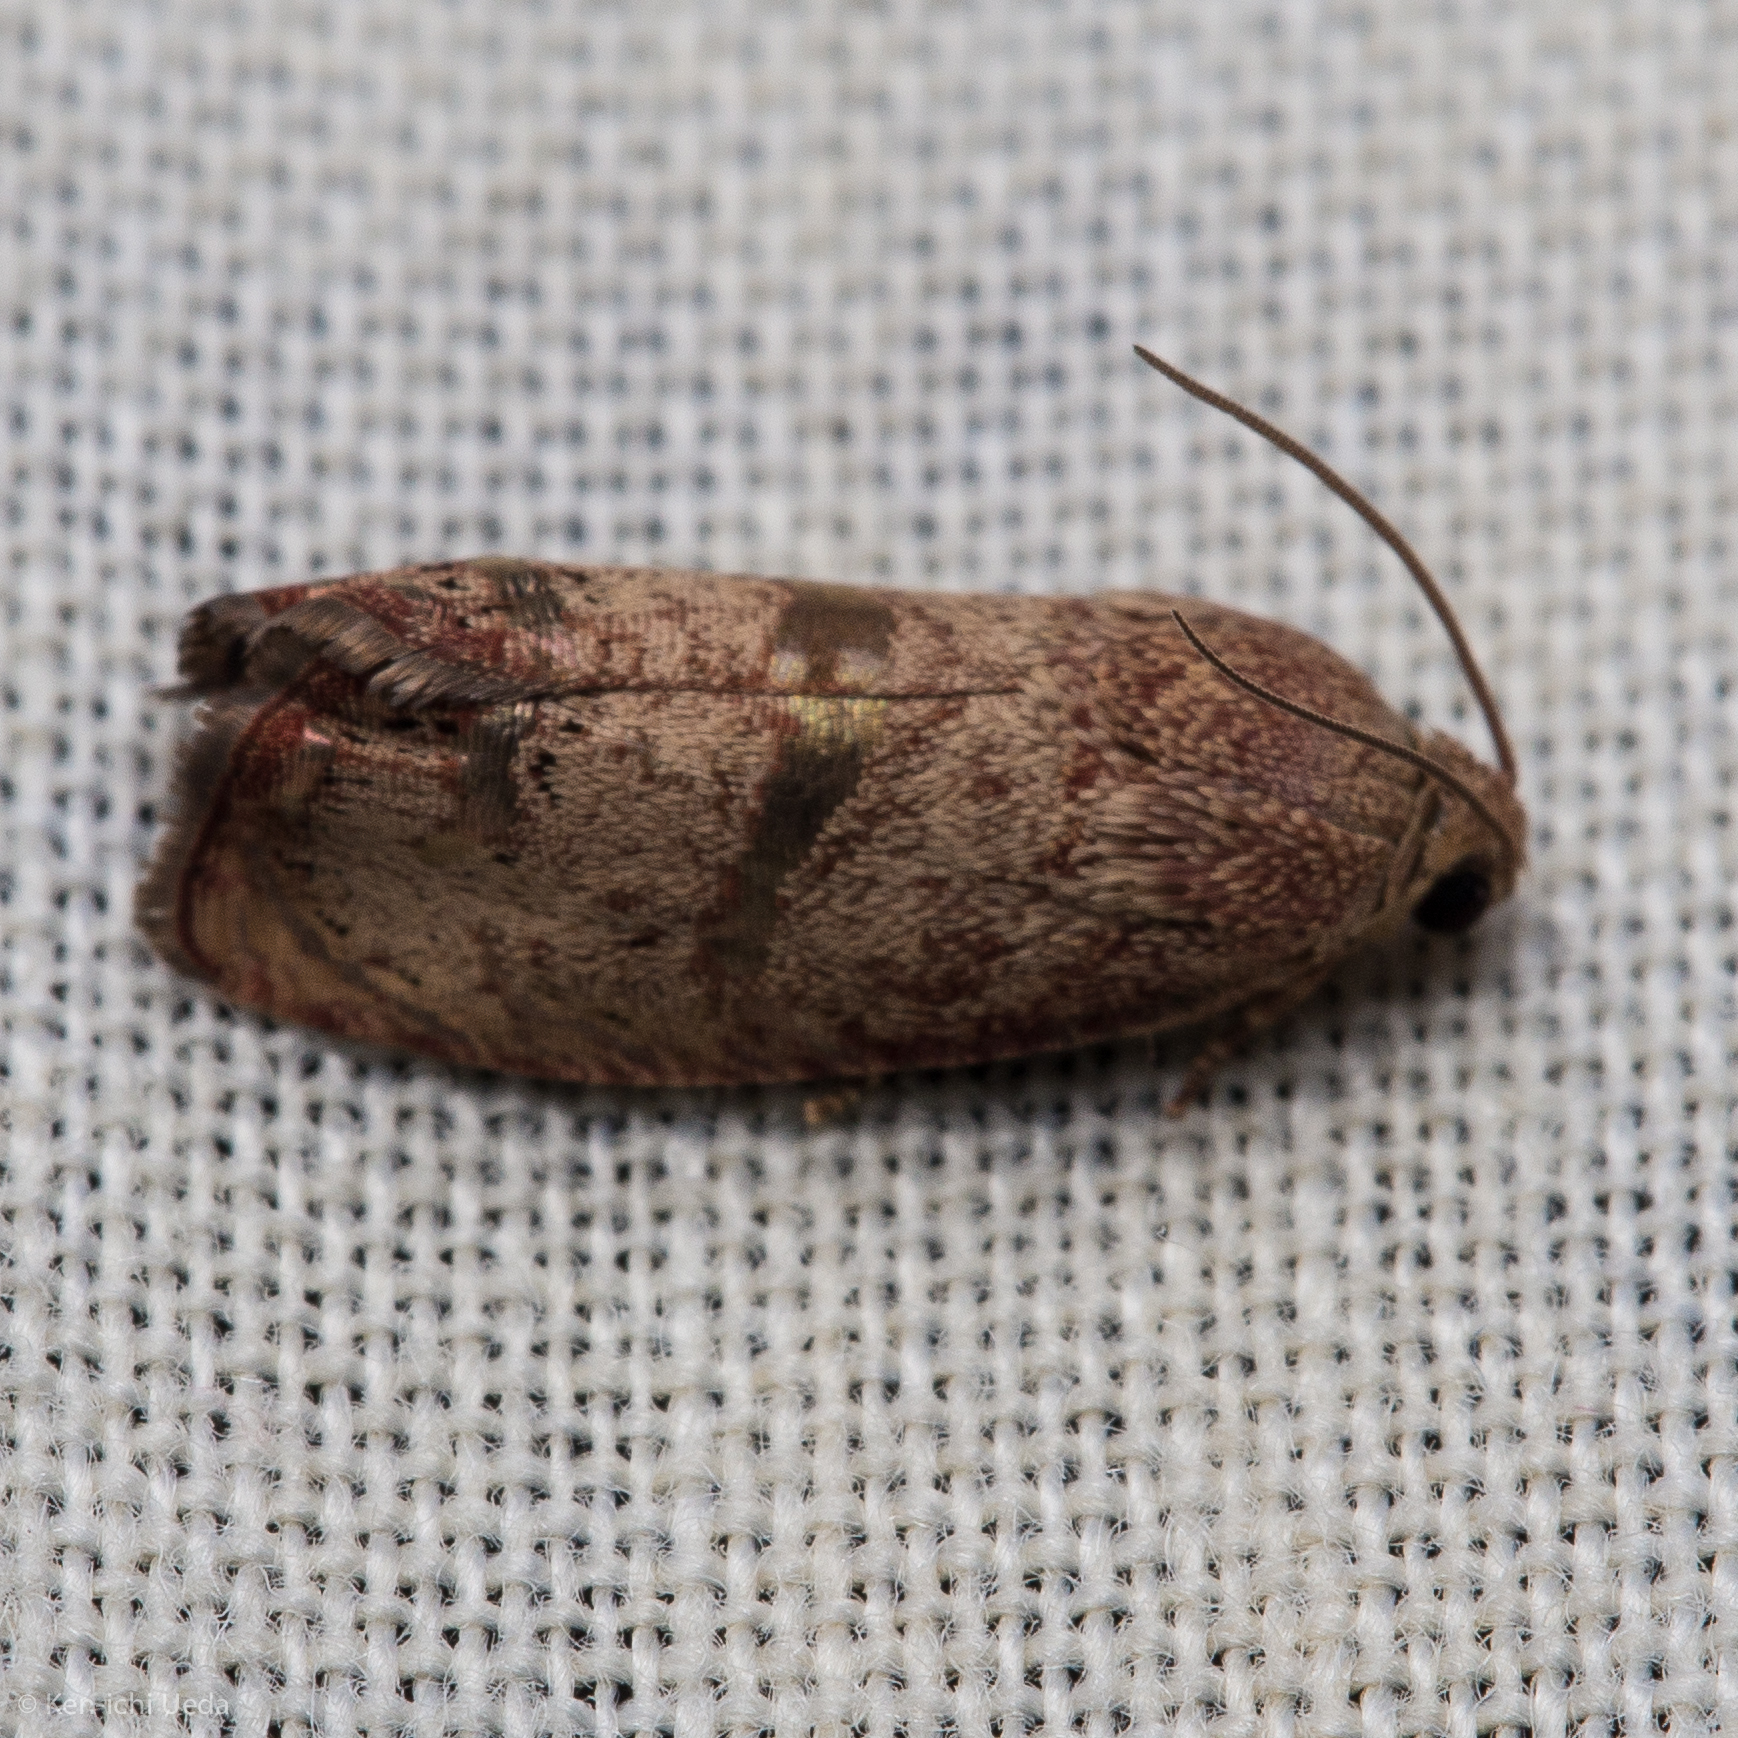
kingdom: Animalia
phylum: Arthropoda
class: Insecta
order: Lepidoptera
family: Tortricidae
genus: Cydia
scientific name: Cydia latiferreana
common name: Filbertworm moth
